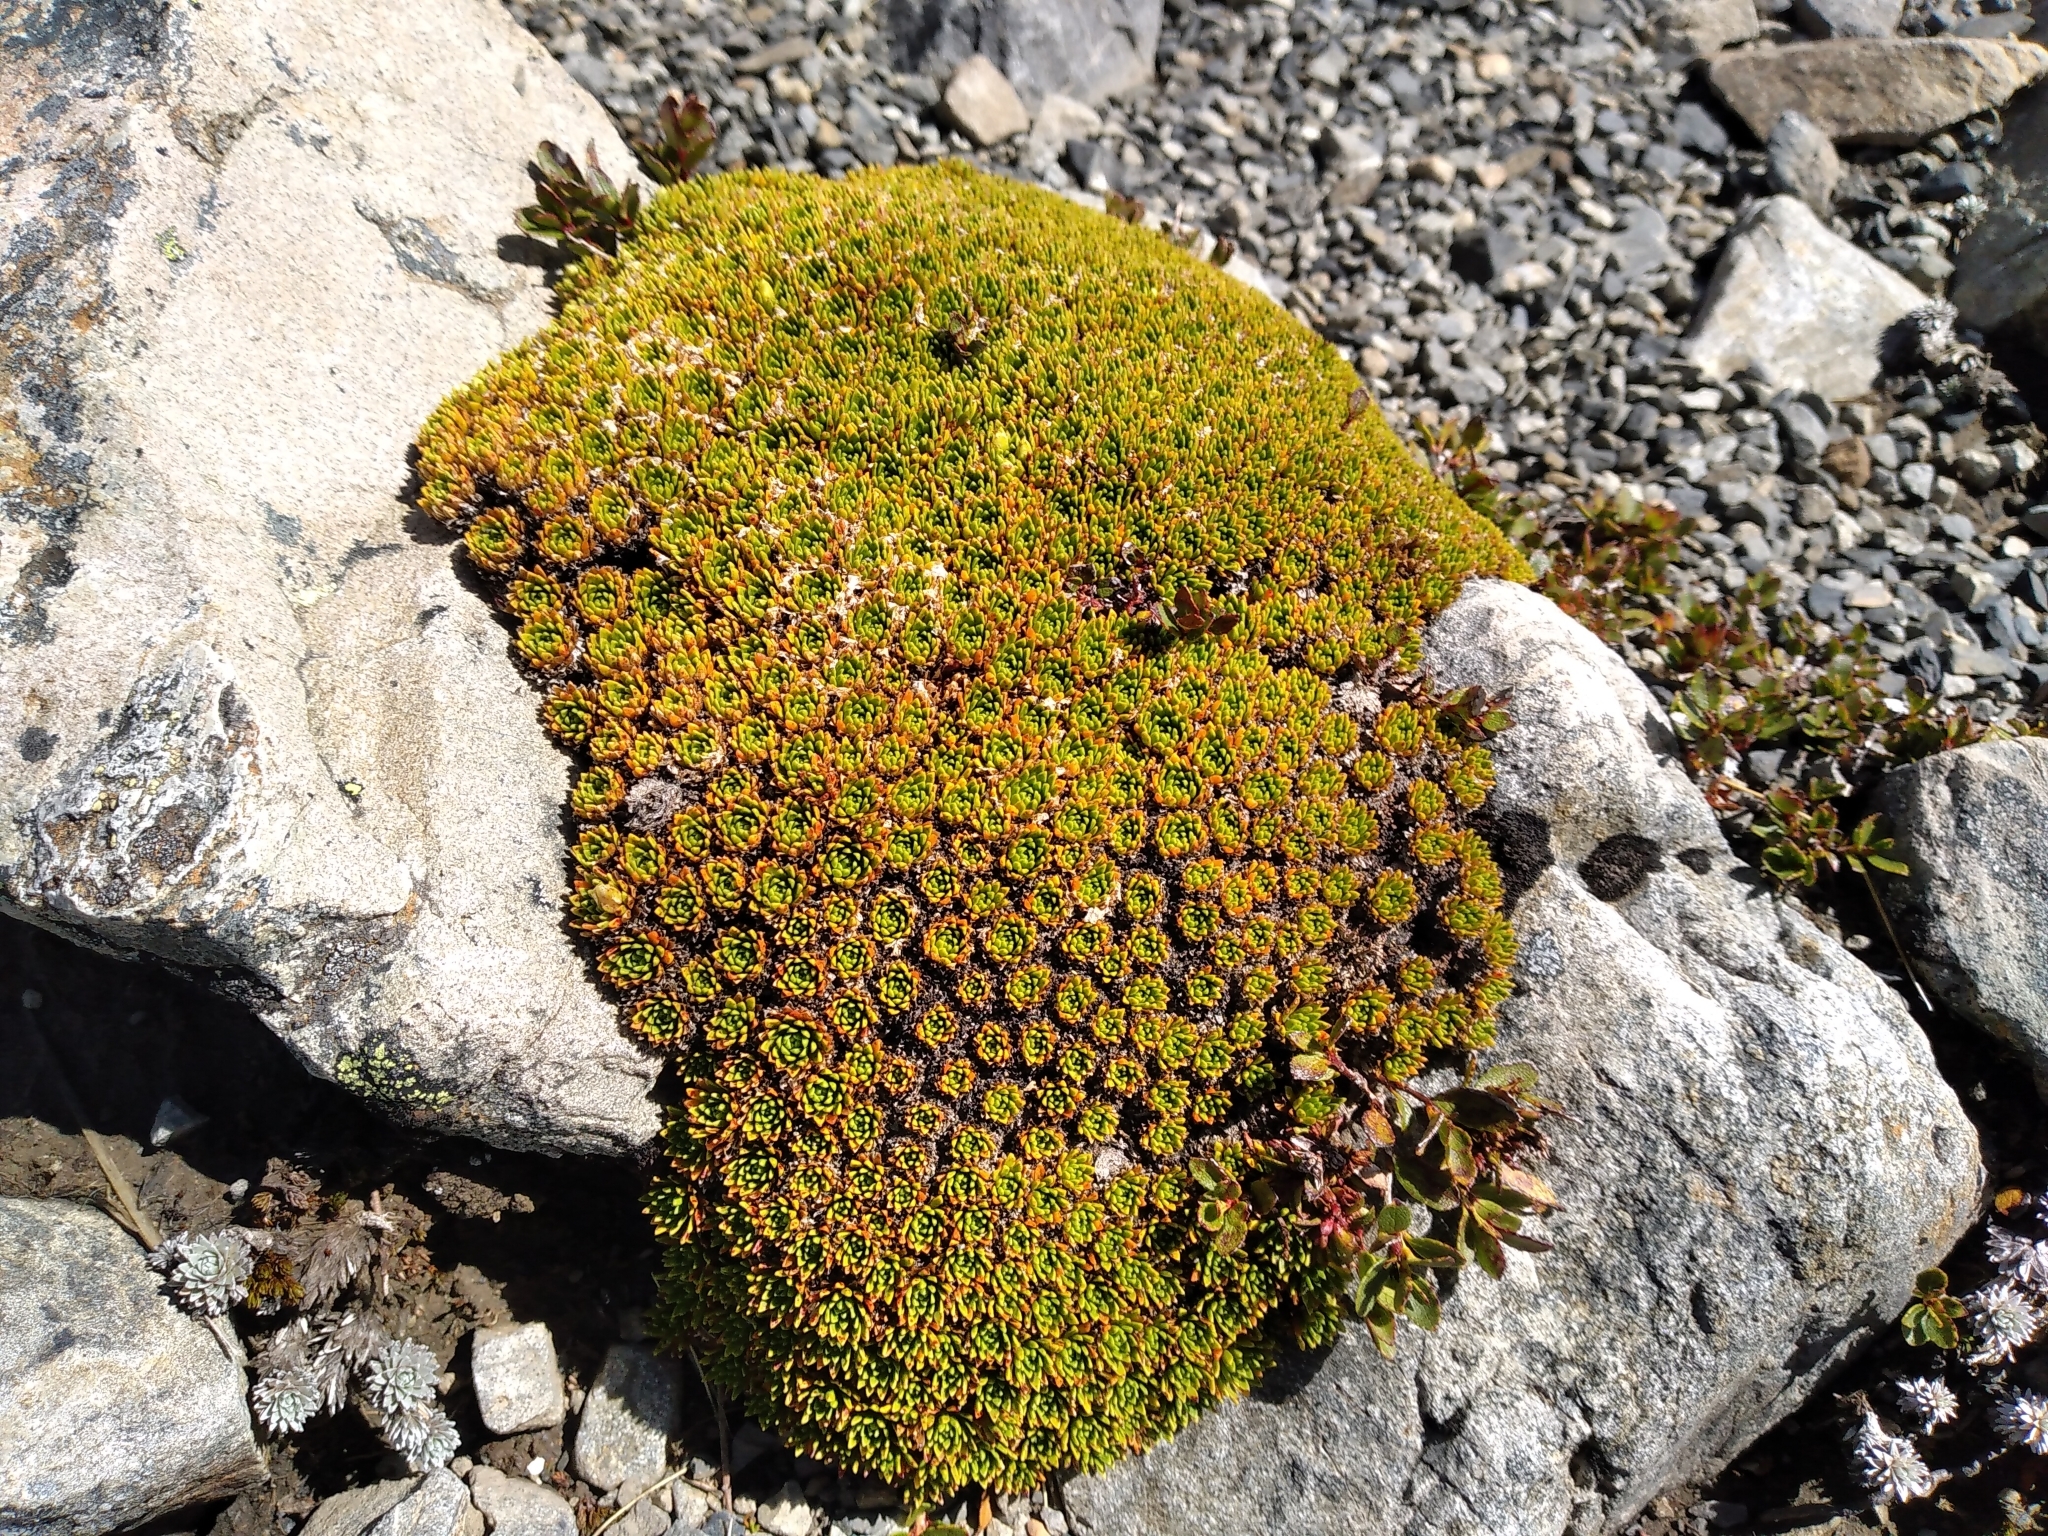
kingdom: Plantae
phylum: Tracheophyta
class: Magnoliopsida
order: Caryophyllales
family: Montiaceae
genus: Hectorella
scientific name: Hectorella caespitosa
